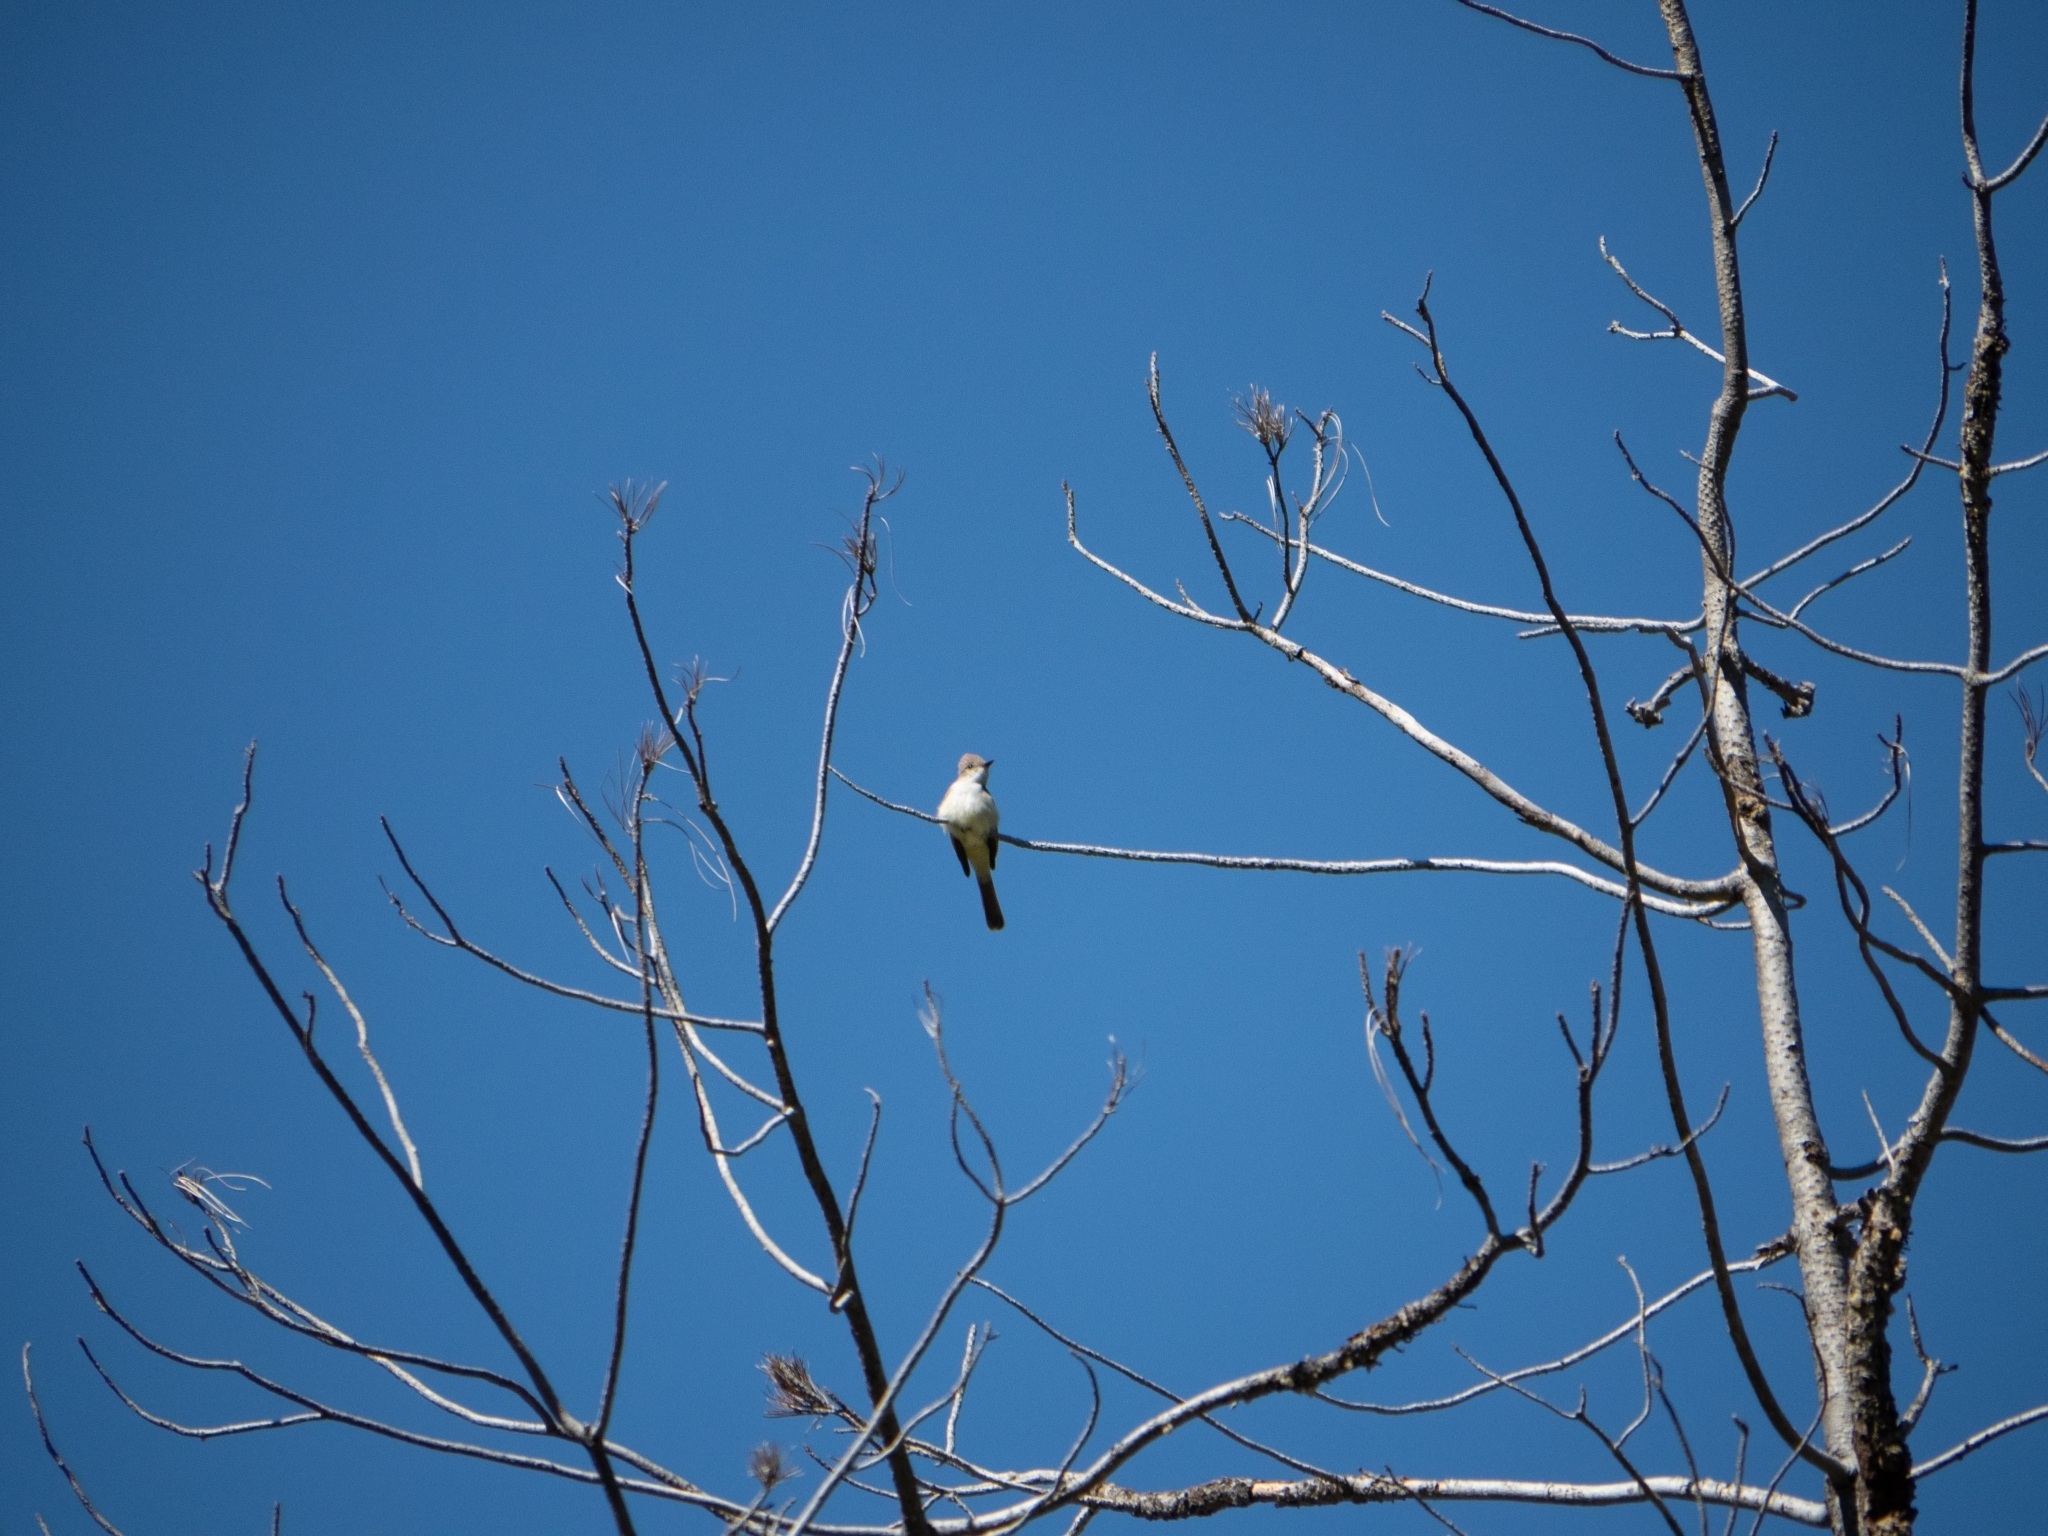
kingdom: Animalia
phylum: Chordata
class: Aves
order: Passeriformes
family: Tyrannidae
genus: Myiarchus
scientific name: Myiarchus cinerascens
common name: Ash-throated flycatcher
